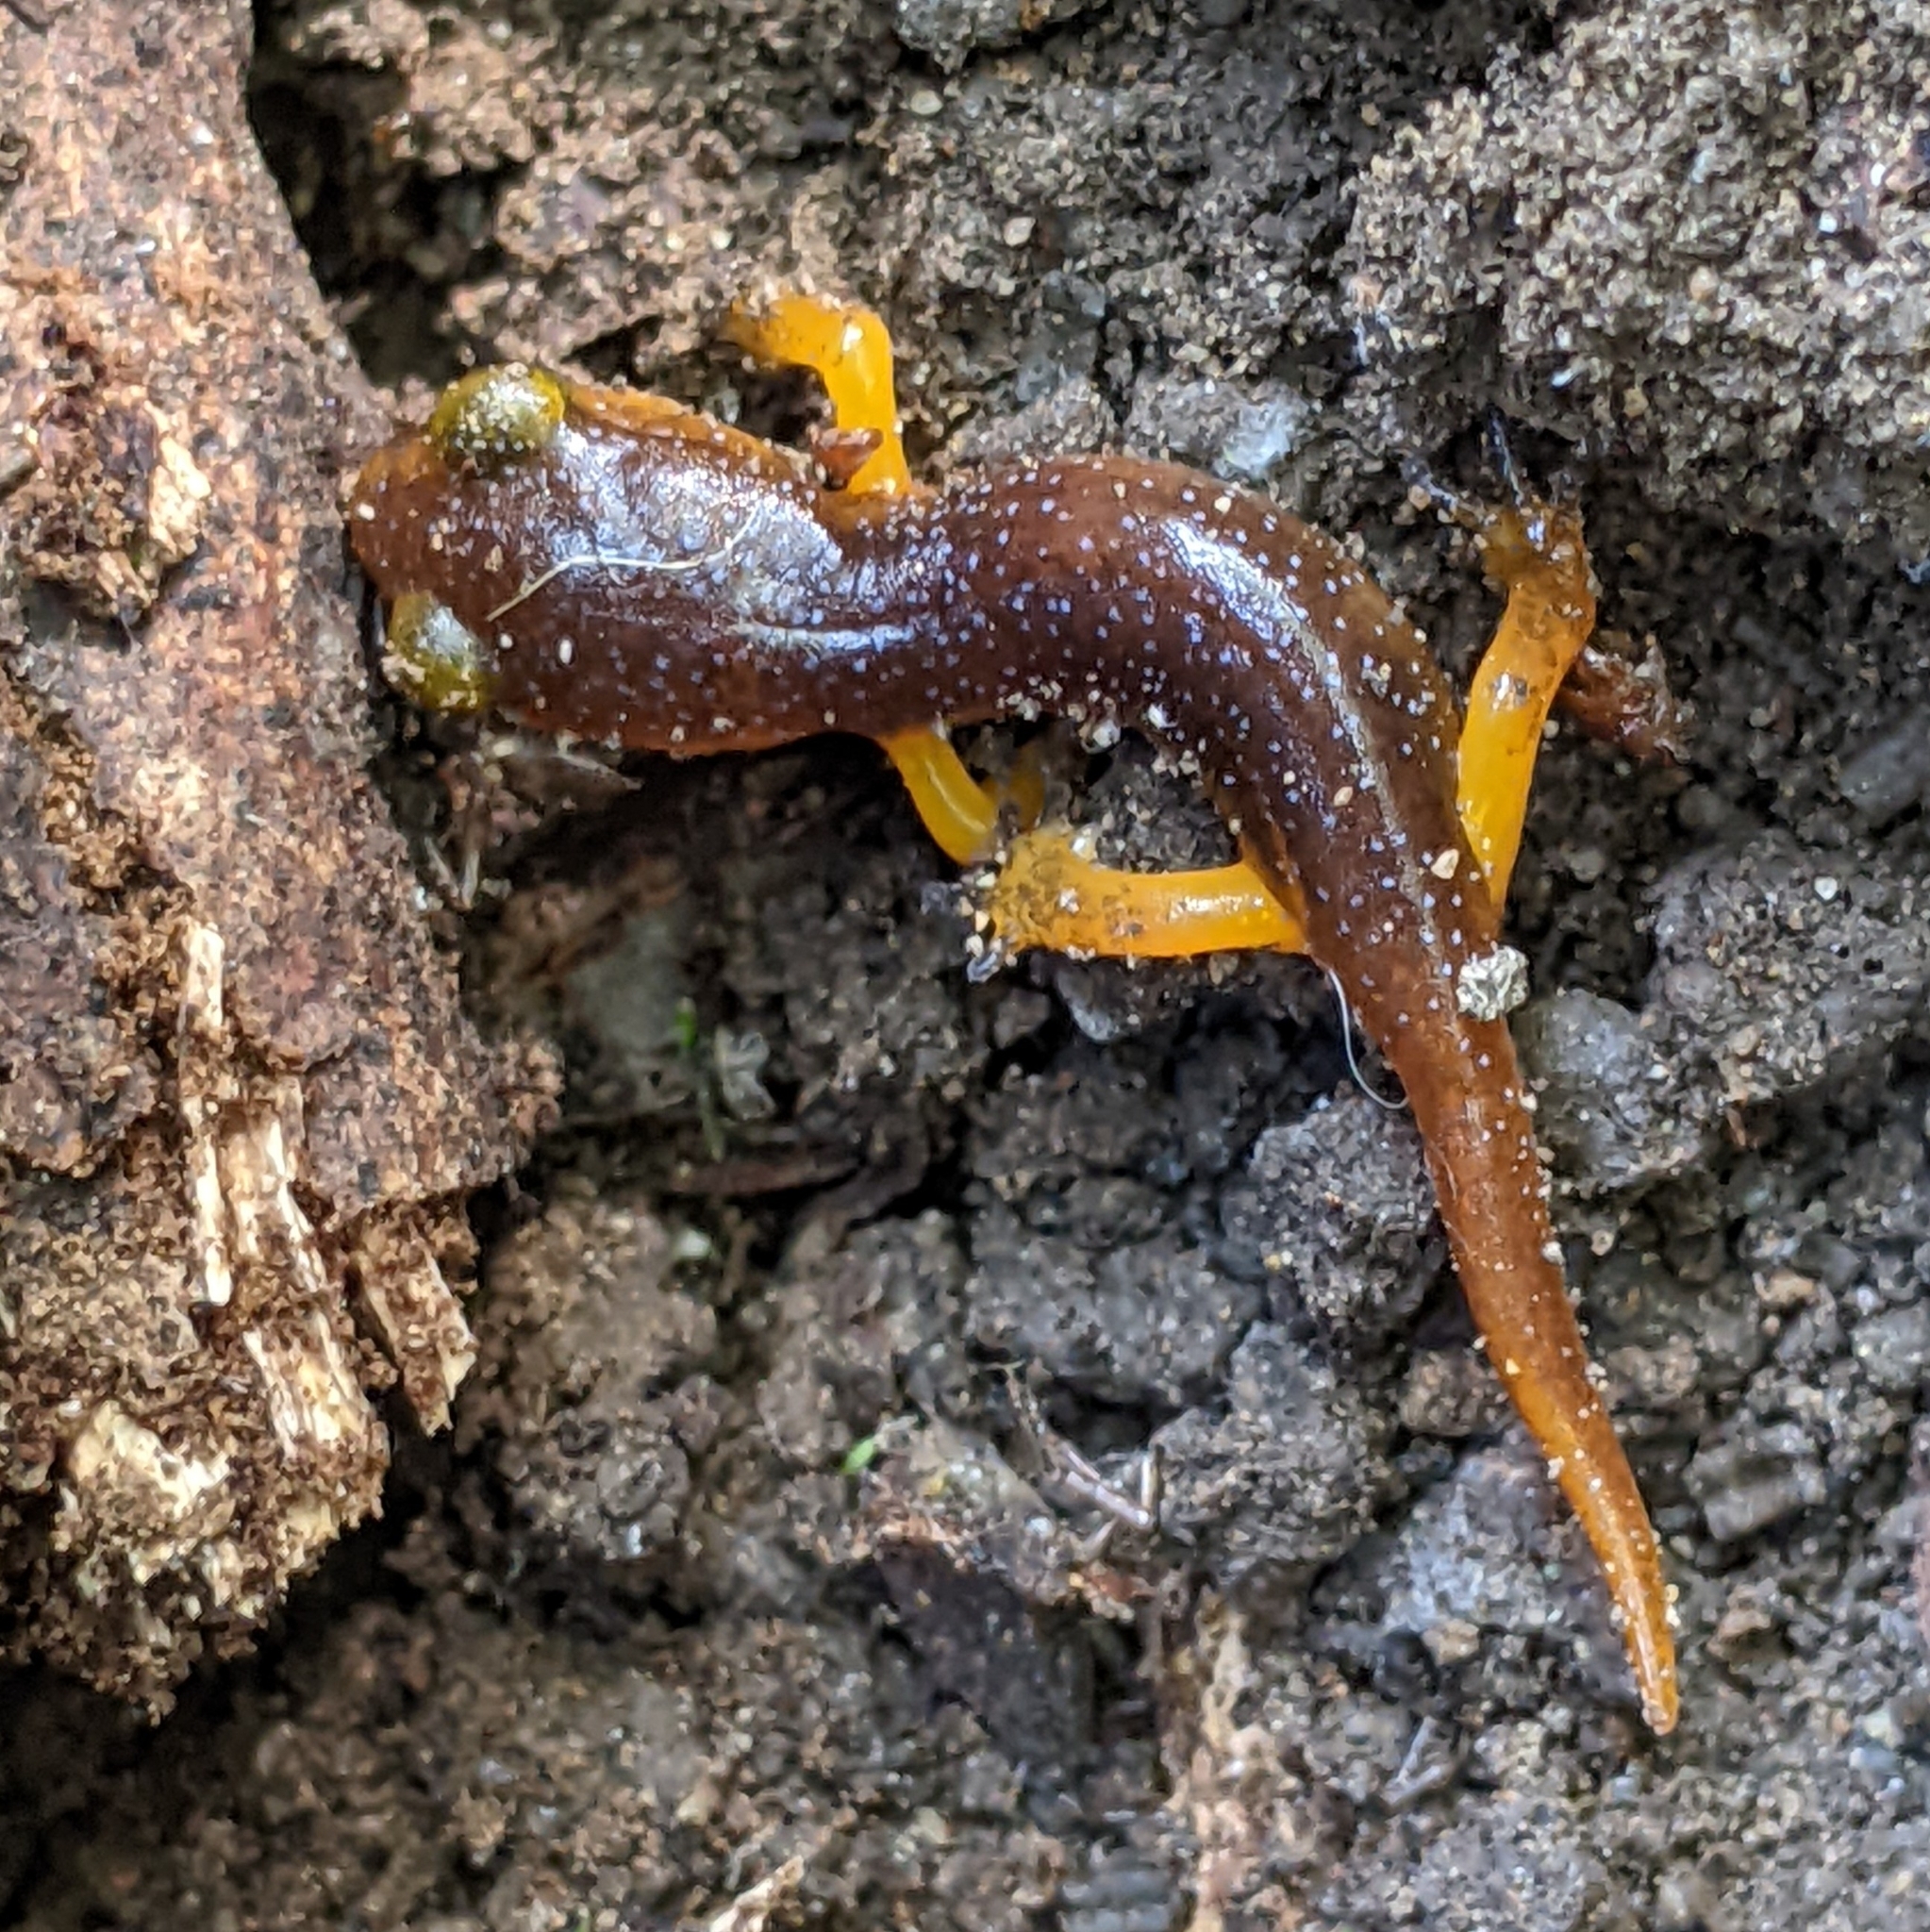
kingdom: Animalia
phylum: Chordata
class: Amphibia
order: Caudata
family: Plethodontidae
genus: Ensatina
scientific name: Ensatina eschscholtzii
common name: Ensatina
